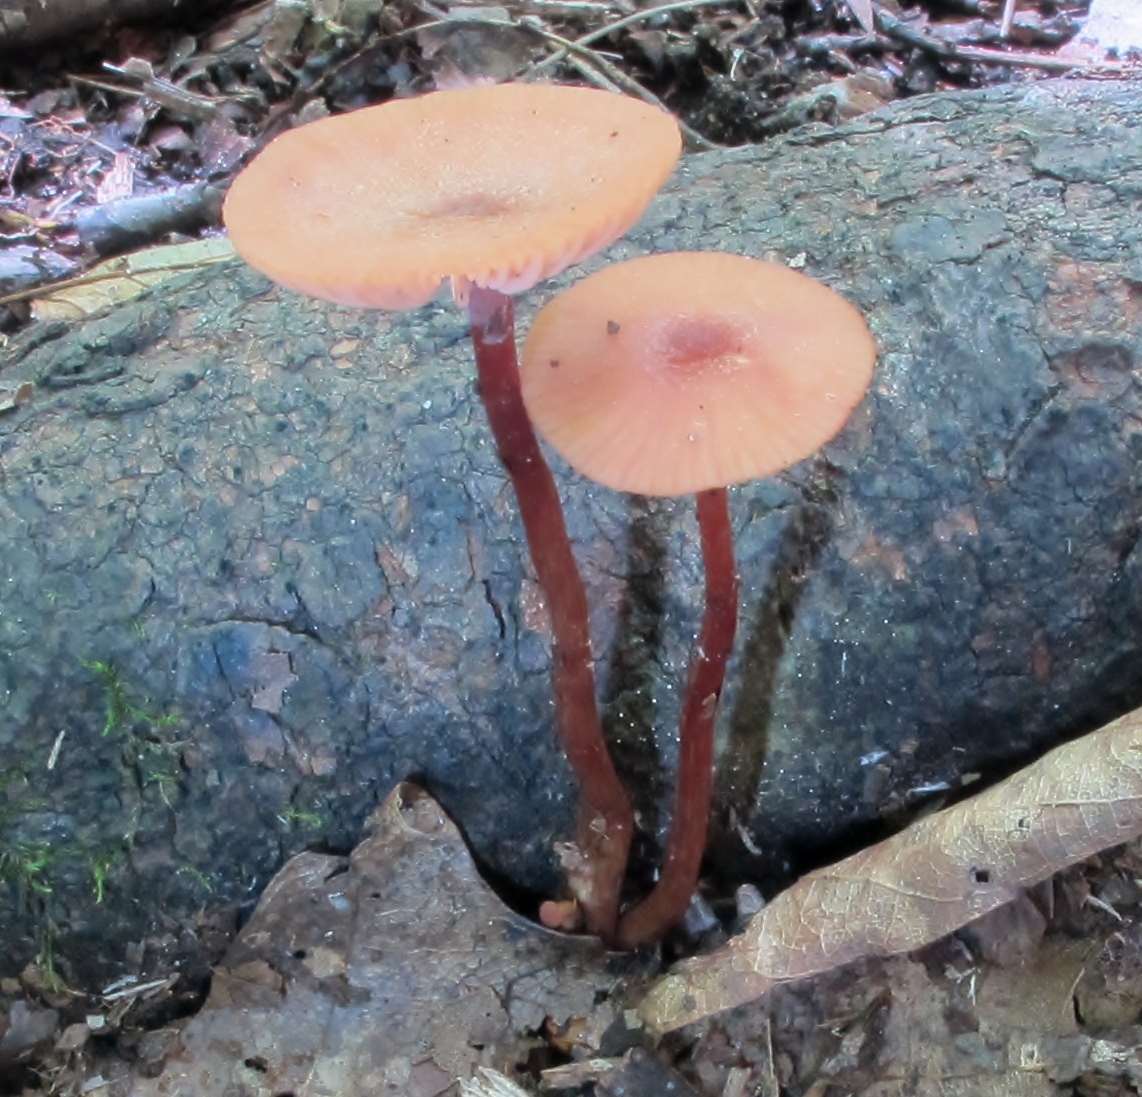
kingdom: Fungi
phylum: Basidiomycota
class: Agaricomycetes
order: Agaricales
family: Hydnangiaceae
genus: Laccaria
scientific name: Laccaria laccata
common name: Deceiver
